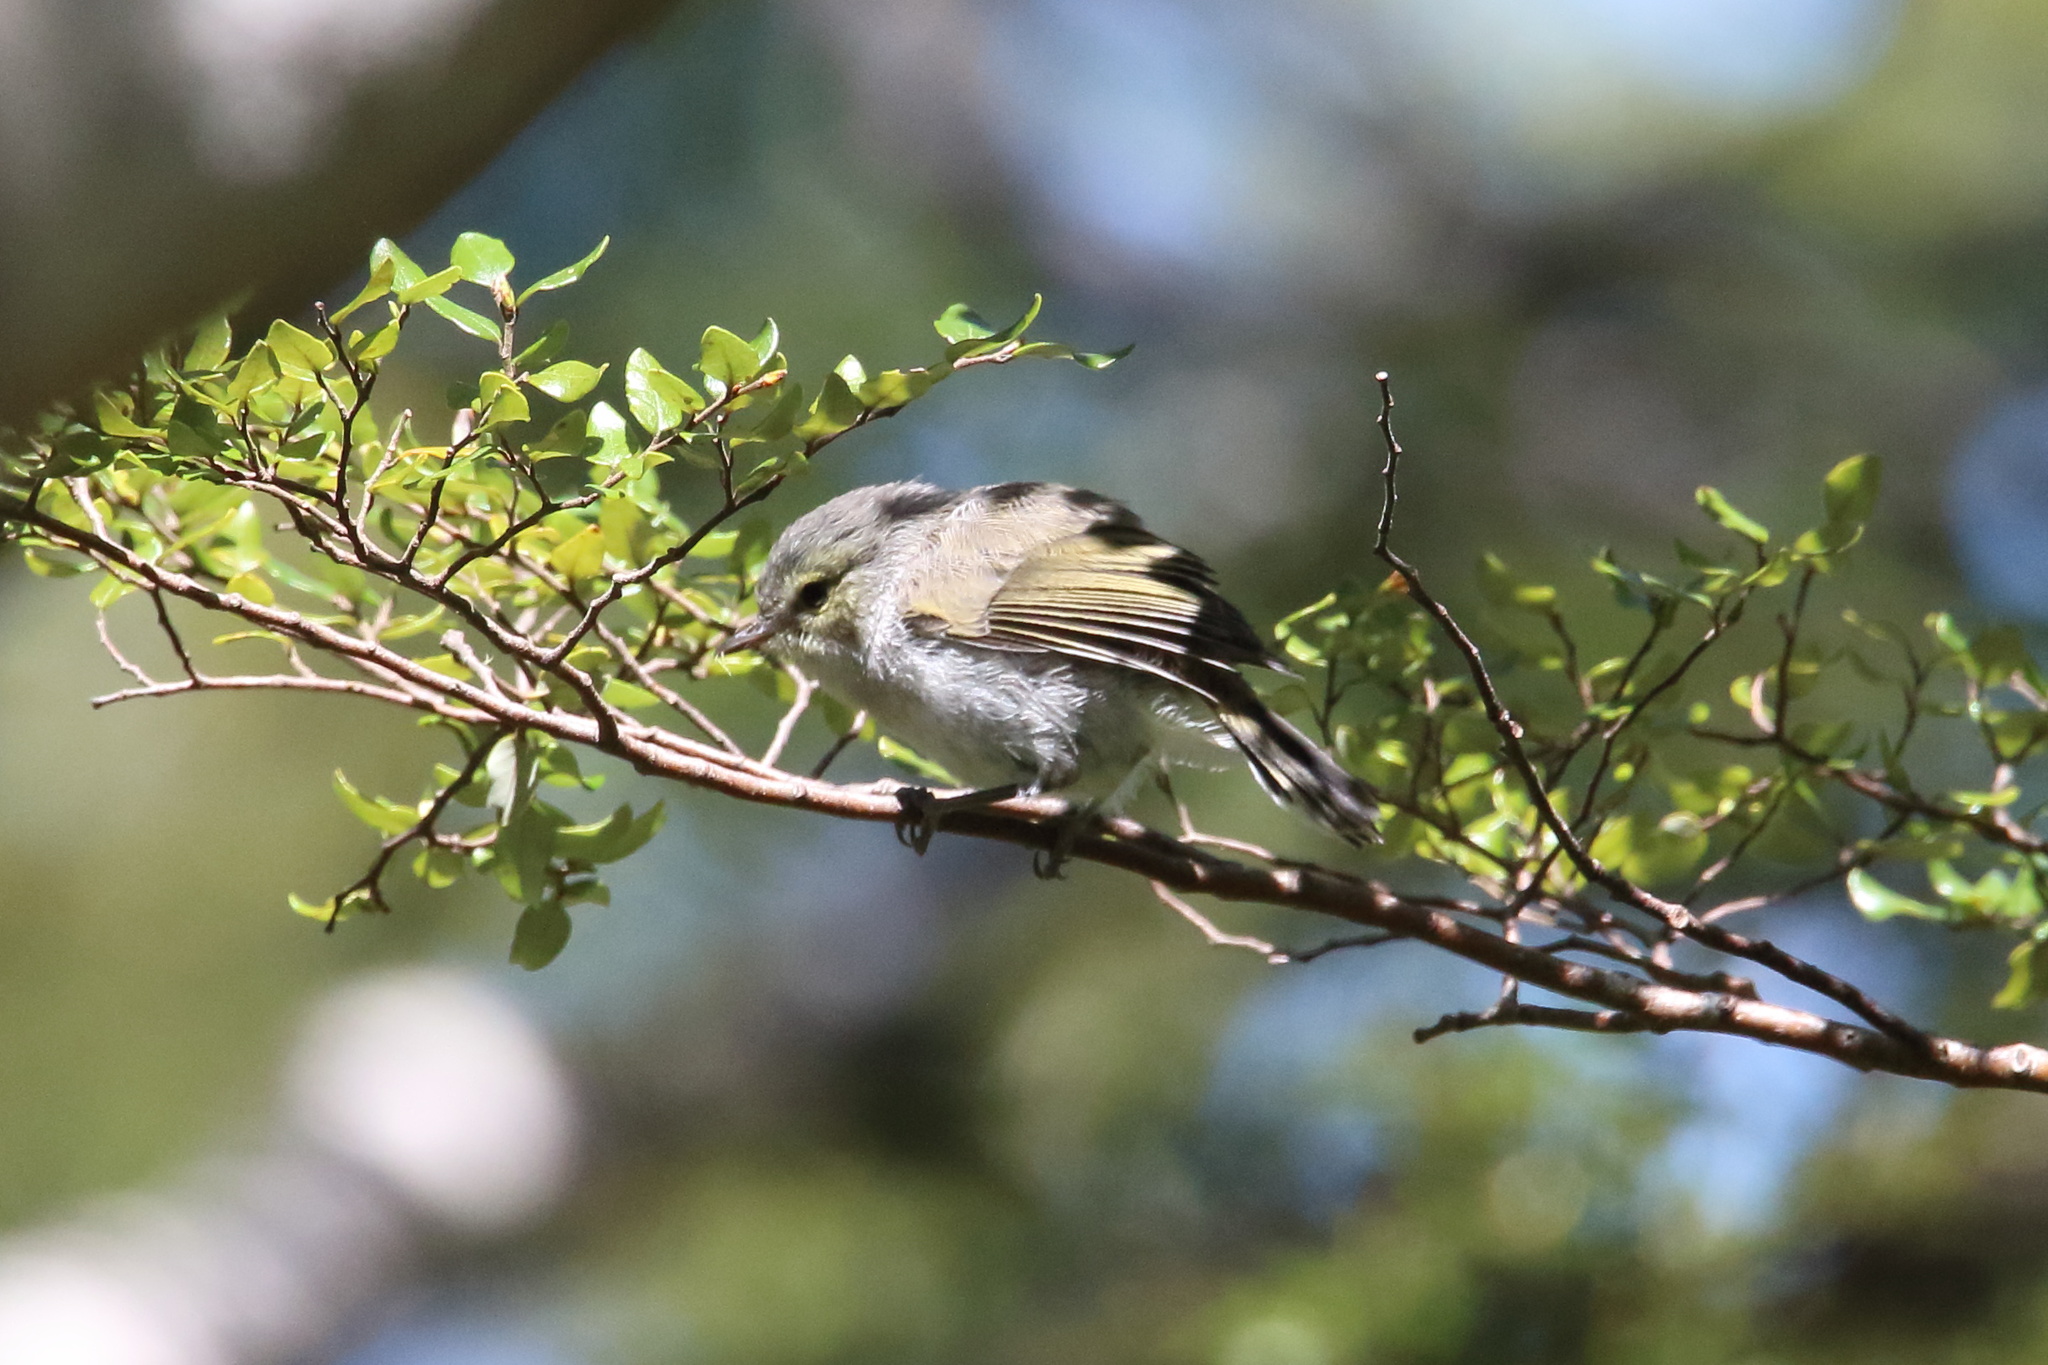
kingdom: Animalia
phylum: Chordata
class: Aves
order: Passeriformes
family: Acanthizidae
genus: Gerygone
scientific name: Gerygone igata
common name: Grey gerygone
